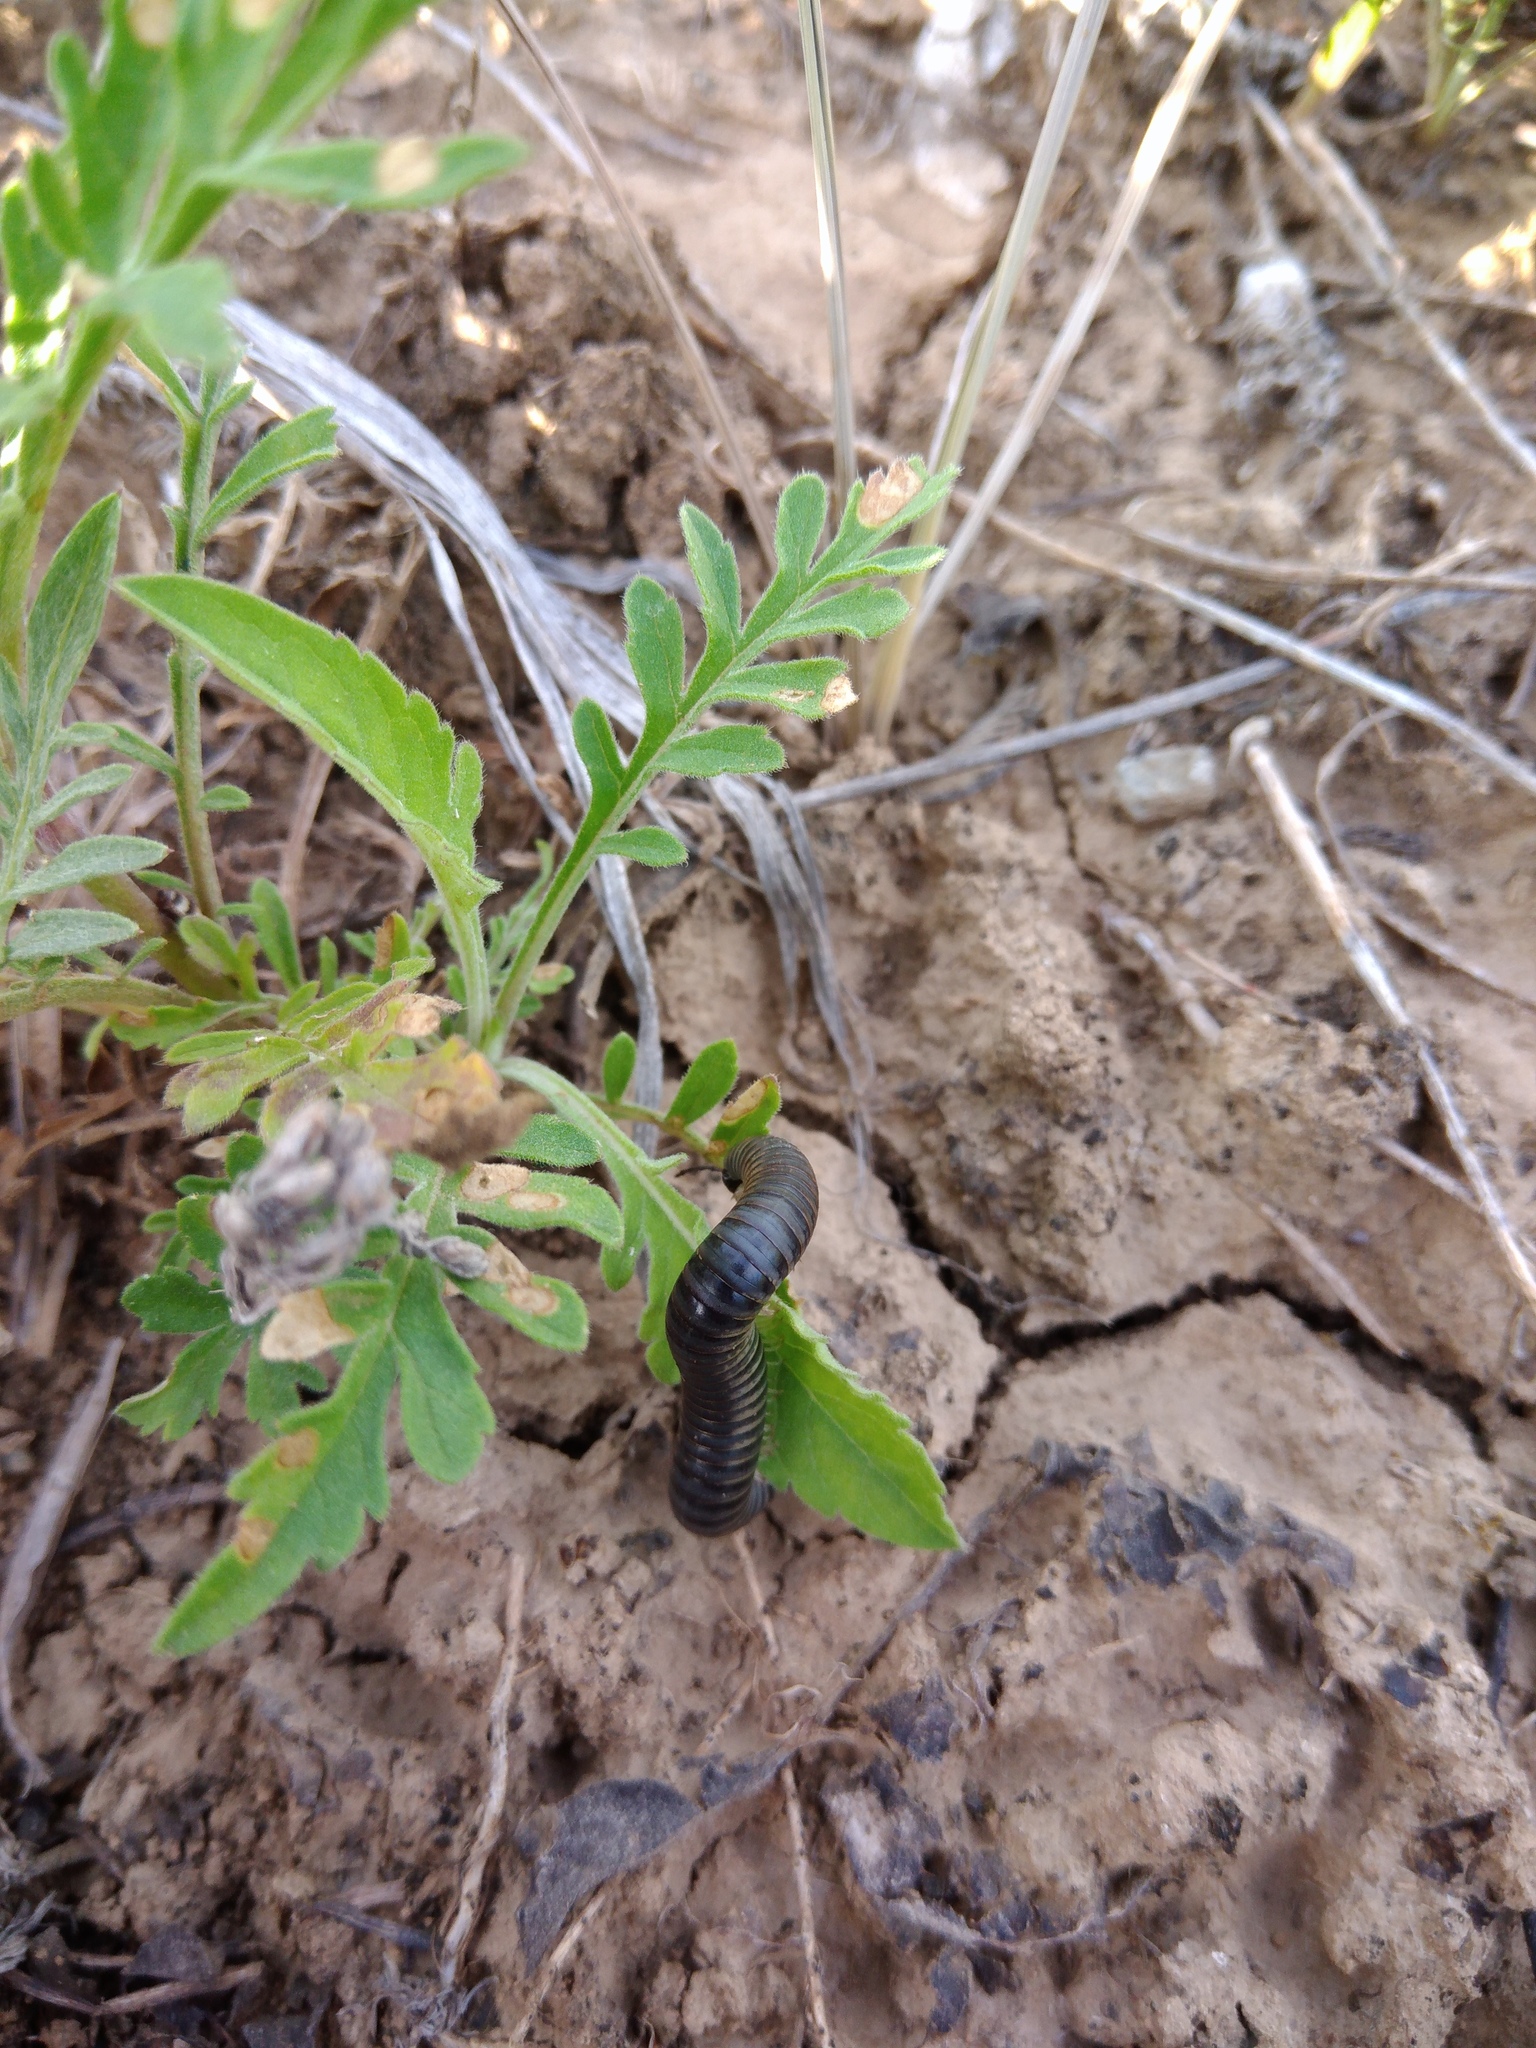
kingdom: Animalia
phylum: Arthropoda
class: Diplopoda
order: Julida
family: Julidae
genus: Rossiulus
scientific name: Rossiulus kessleri
